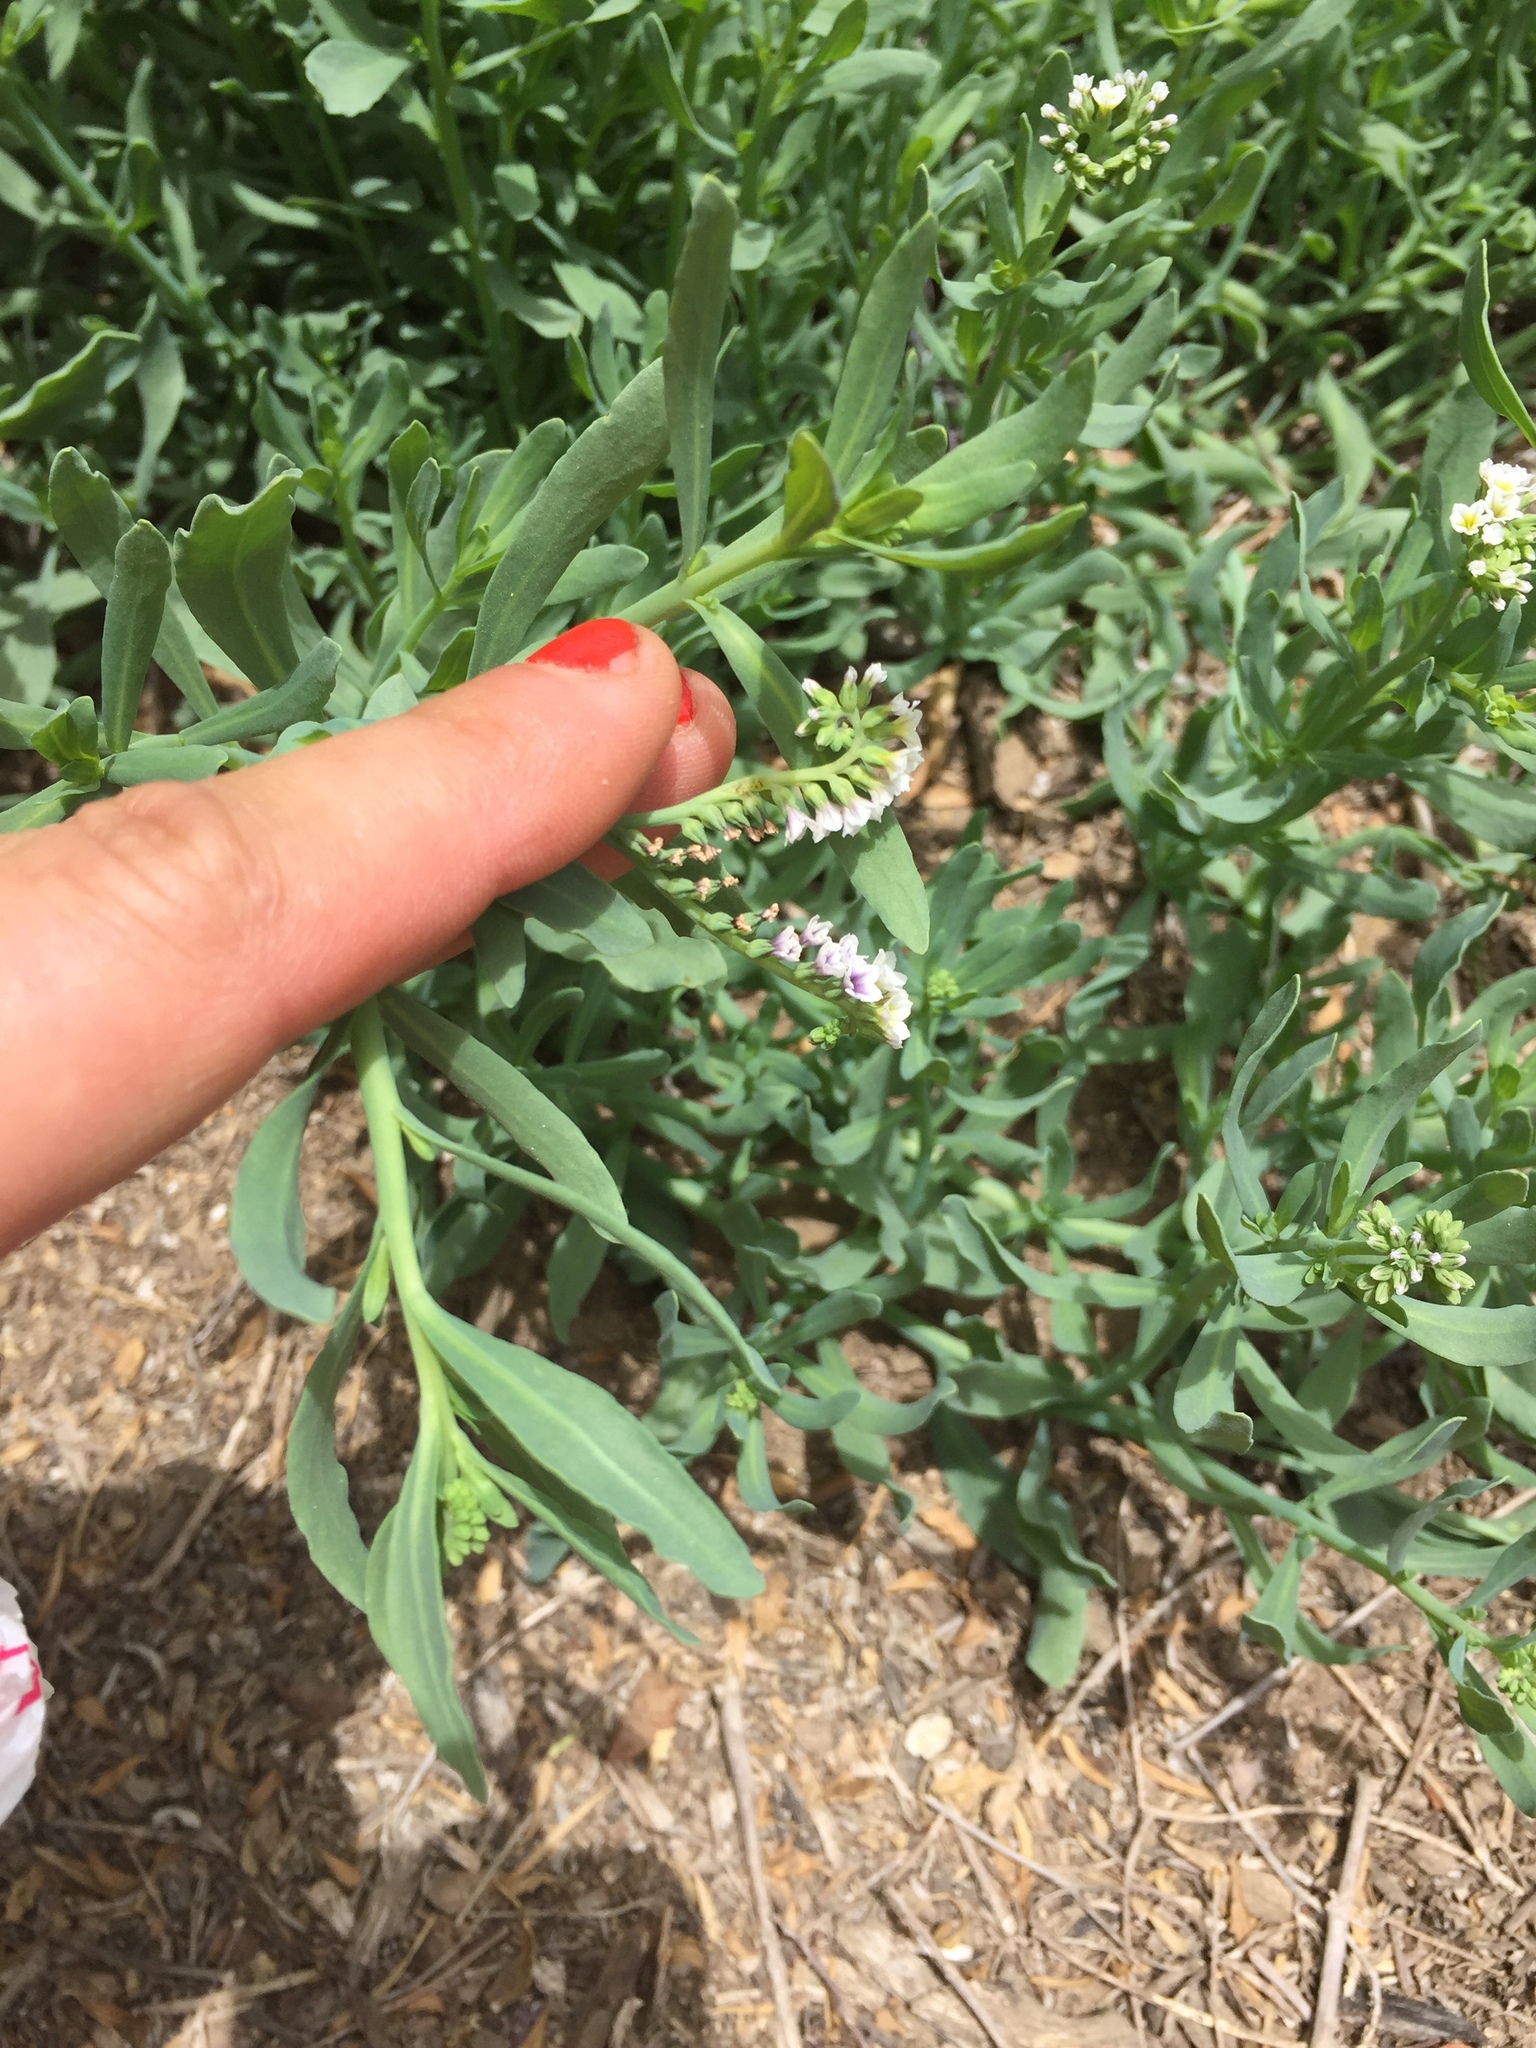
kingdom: Plantae
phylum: Tracheophyta
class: Magnoliopsida
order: Boraginales
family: Heliotropiaceae
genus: Heliotropium
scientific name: Heliotropium curassavicum
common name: Seaside heliotrope
